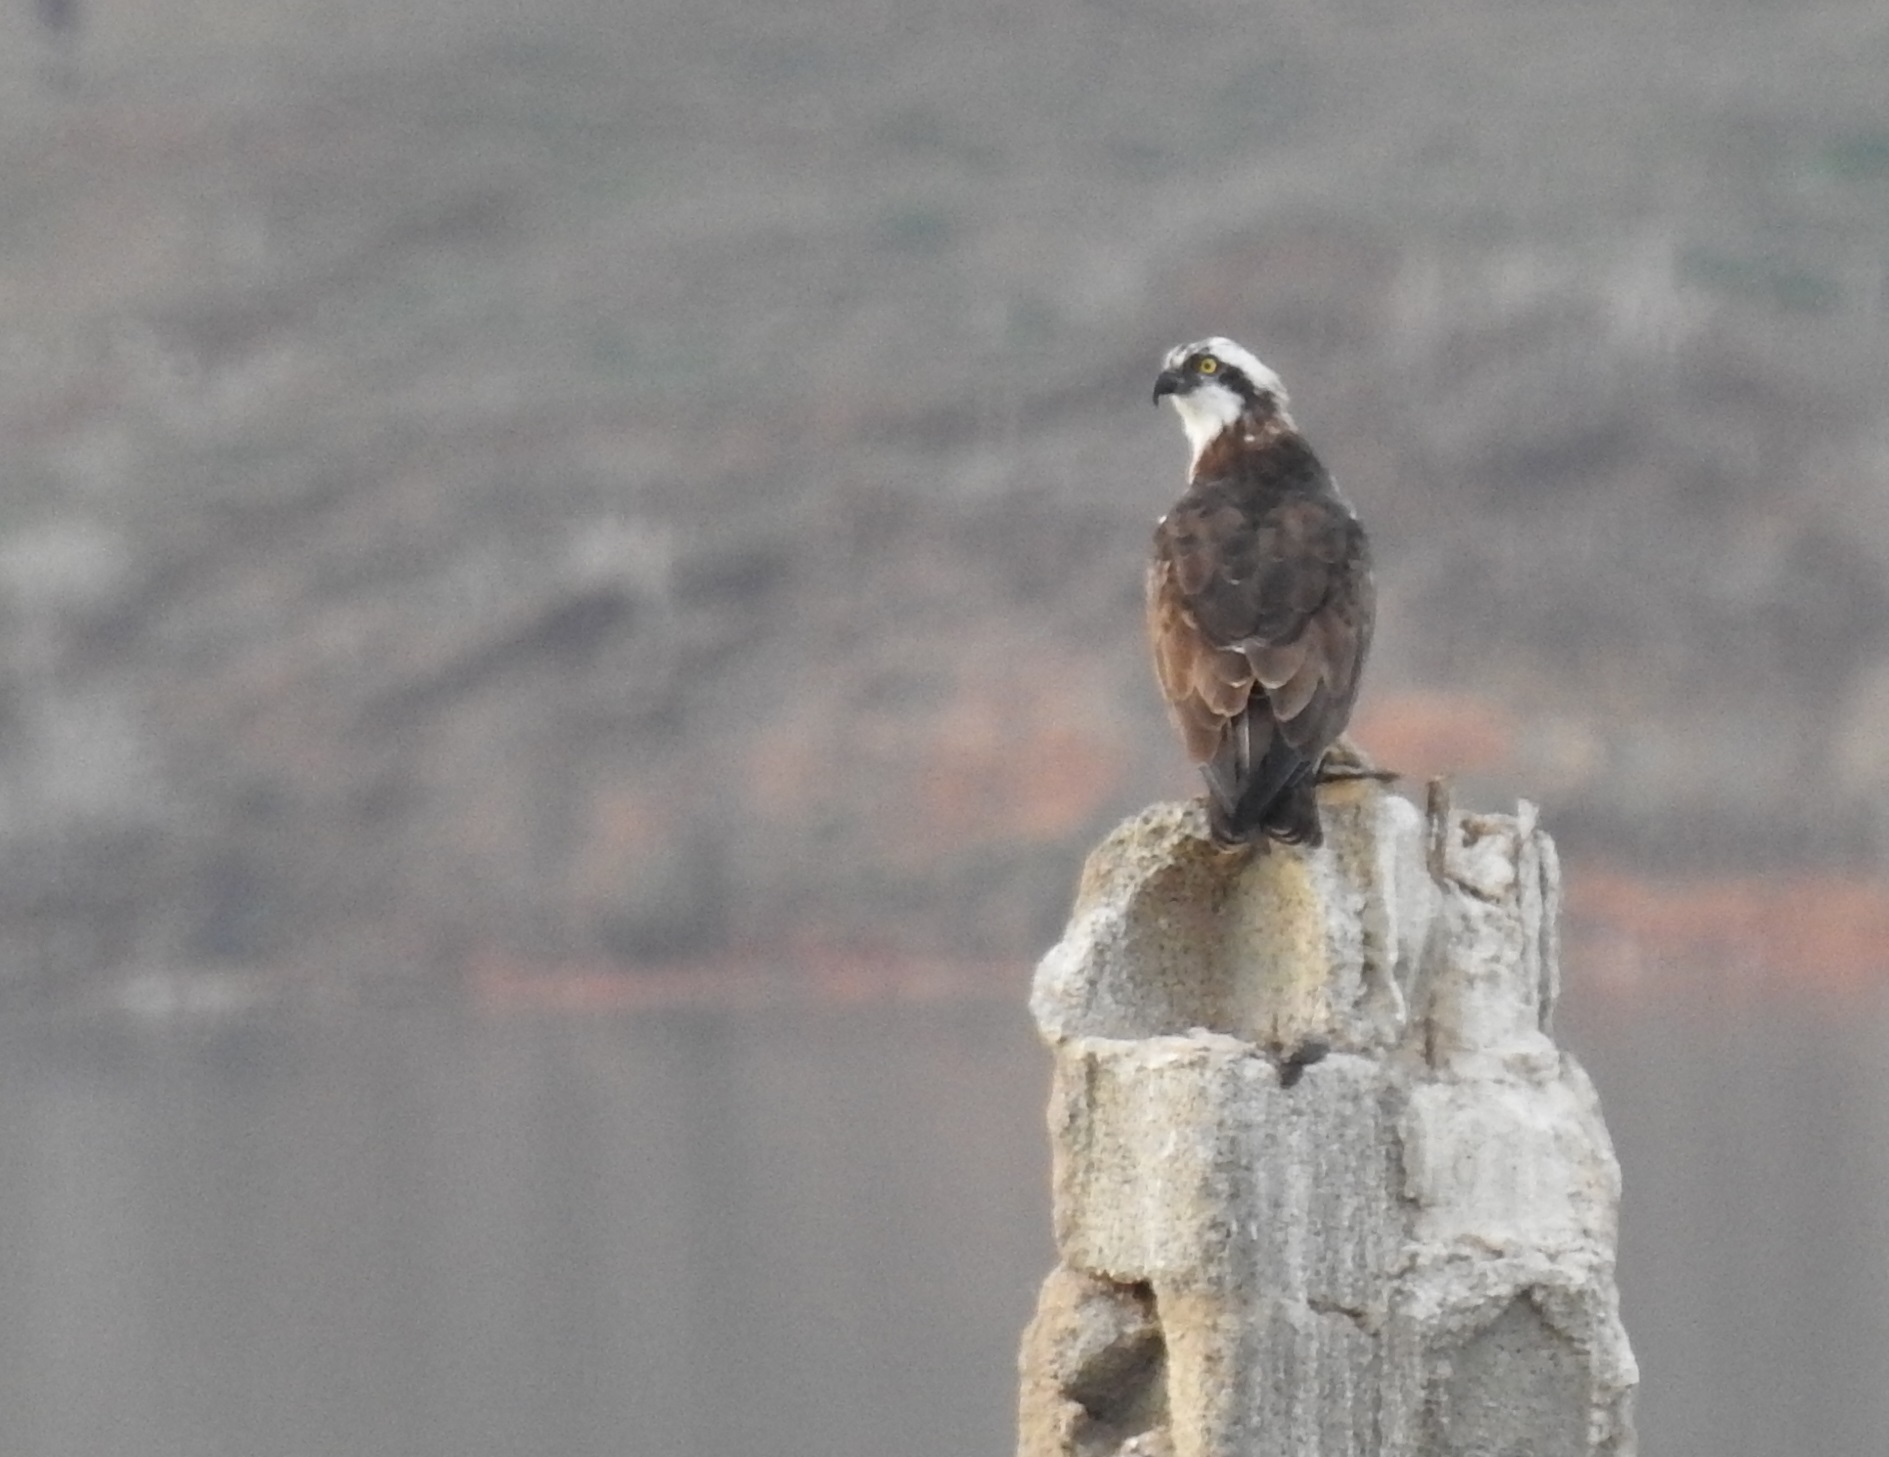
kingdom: Animalia
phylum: Chordata
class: Aves
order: Accipitriformes
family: Pandionidae
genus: Pandion
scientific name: Pandion haliaetus
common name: Osprey
